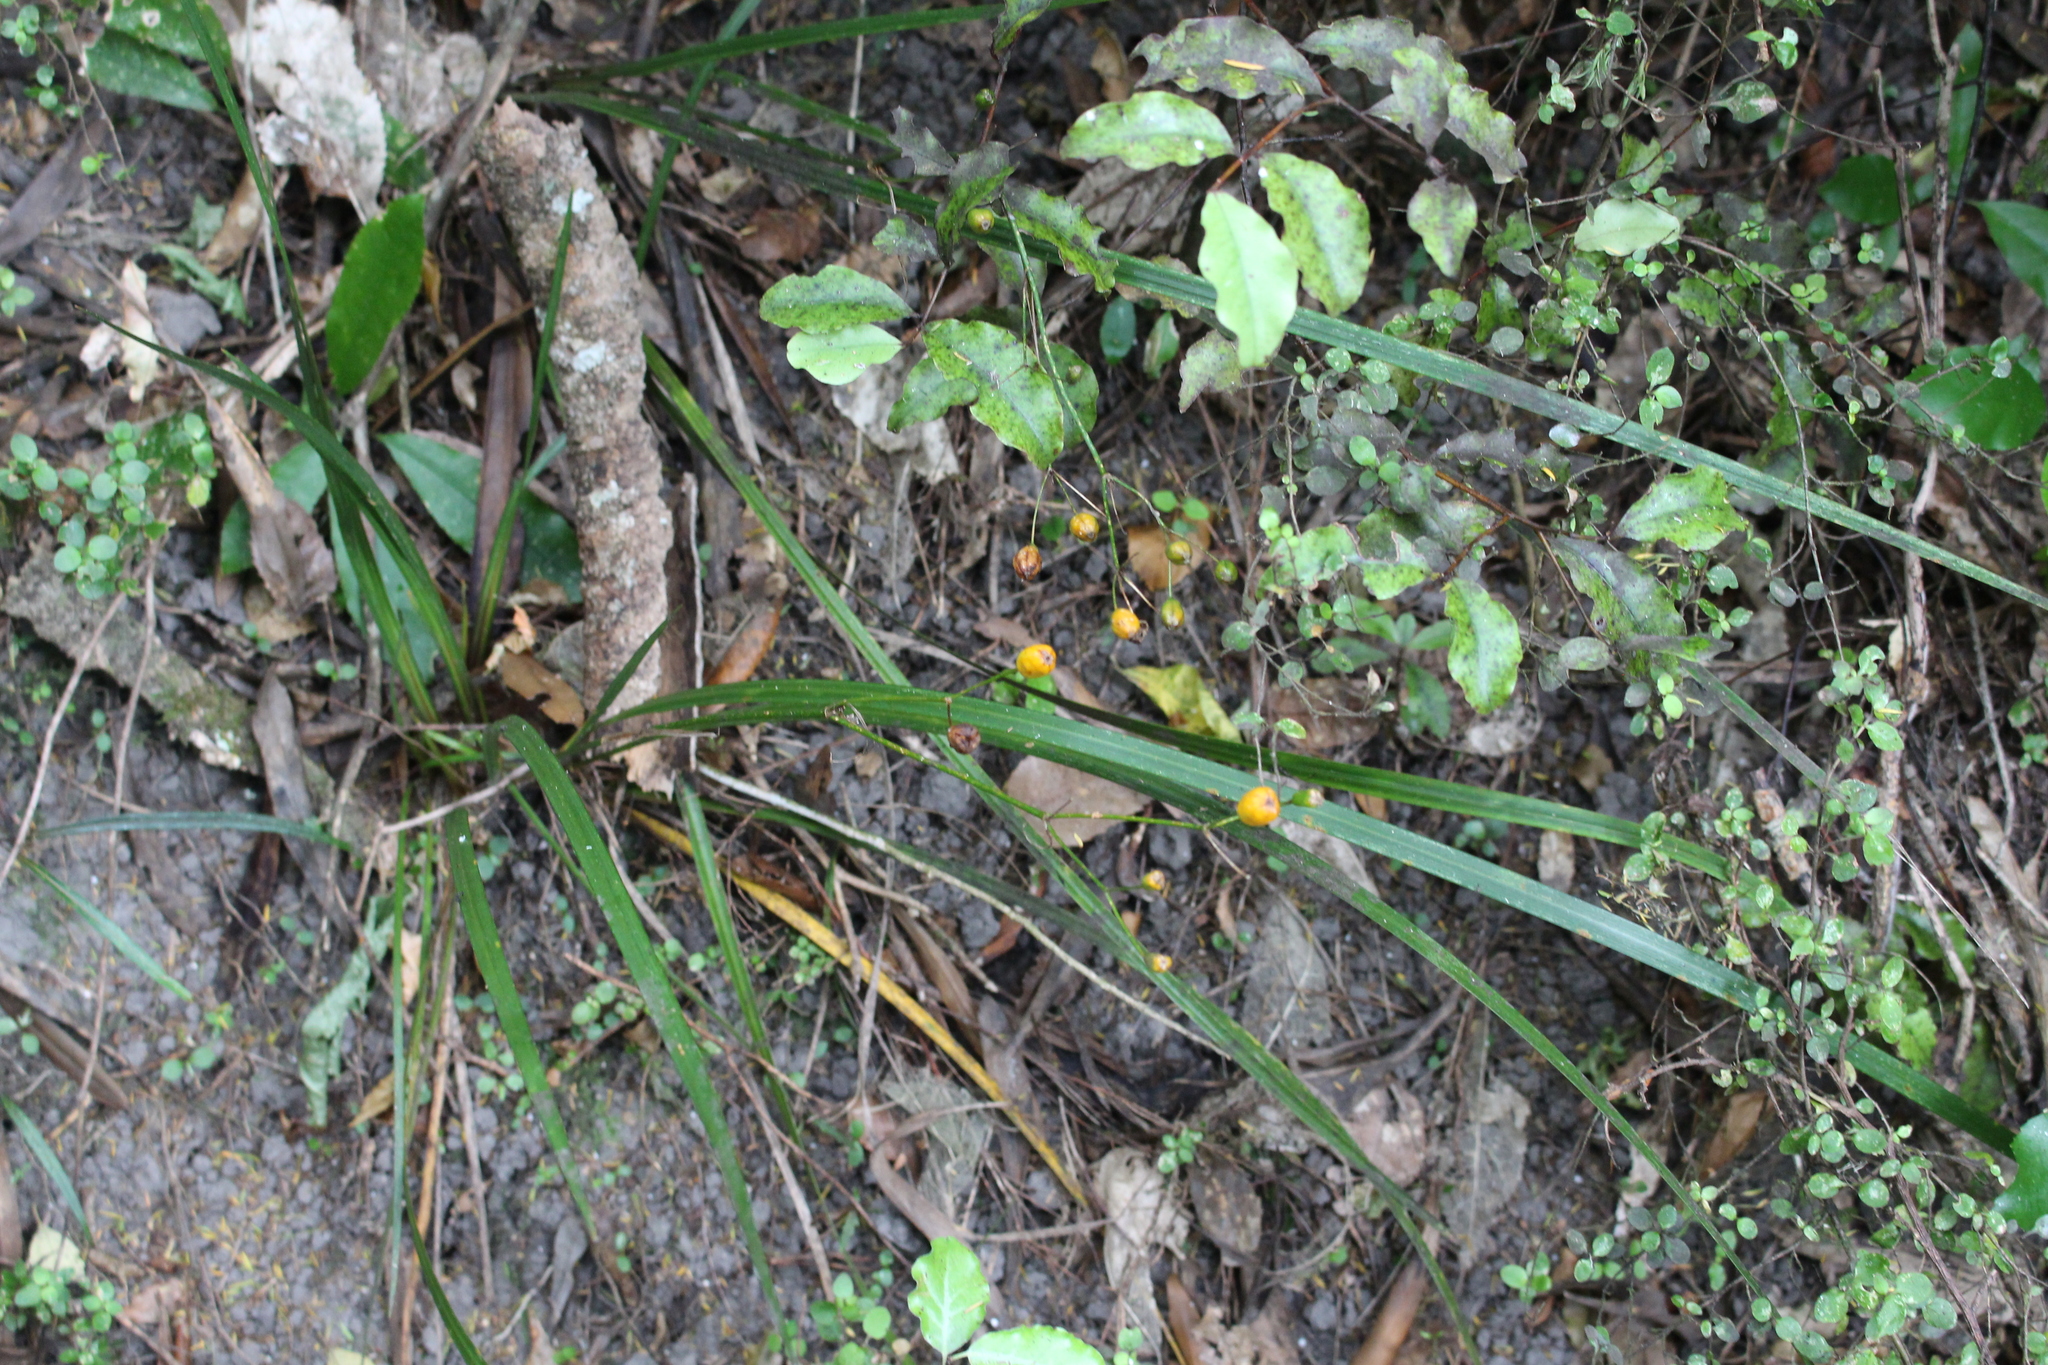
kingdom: Plantae
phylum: Tracheophyta
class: Liliopsida
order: Asparagales
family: Iridaceae
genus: Libertia
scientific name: Libertia ixioides
